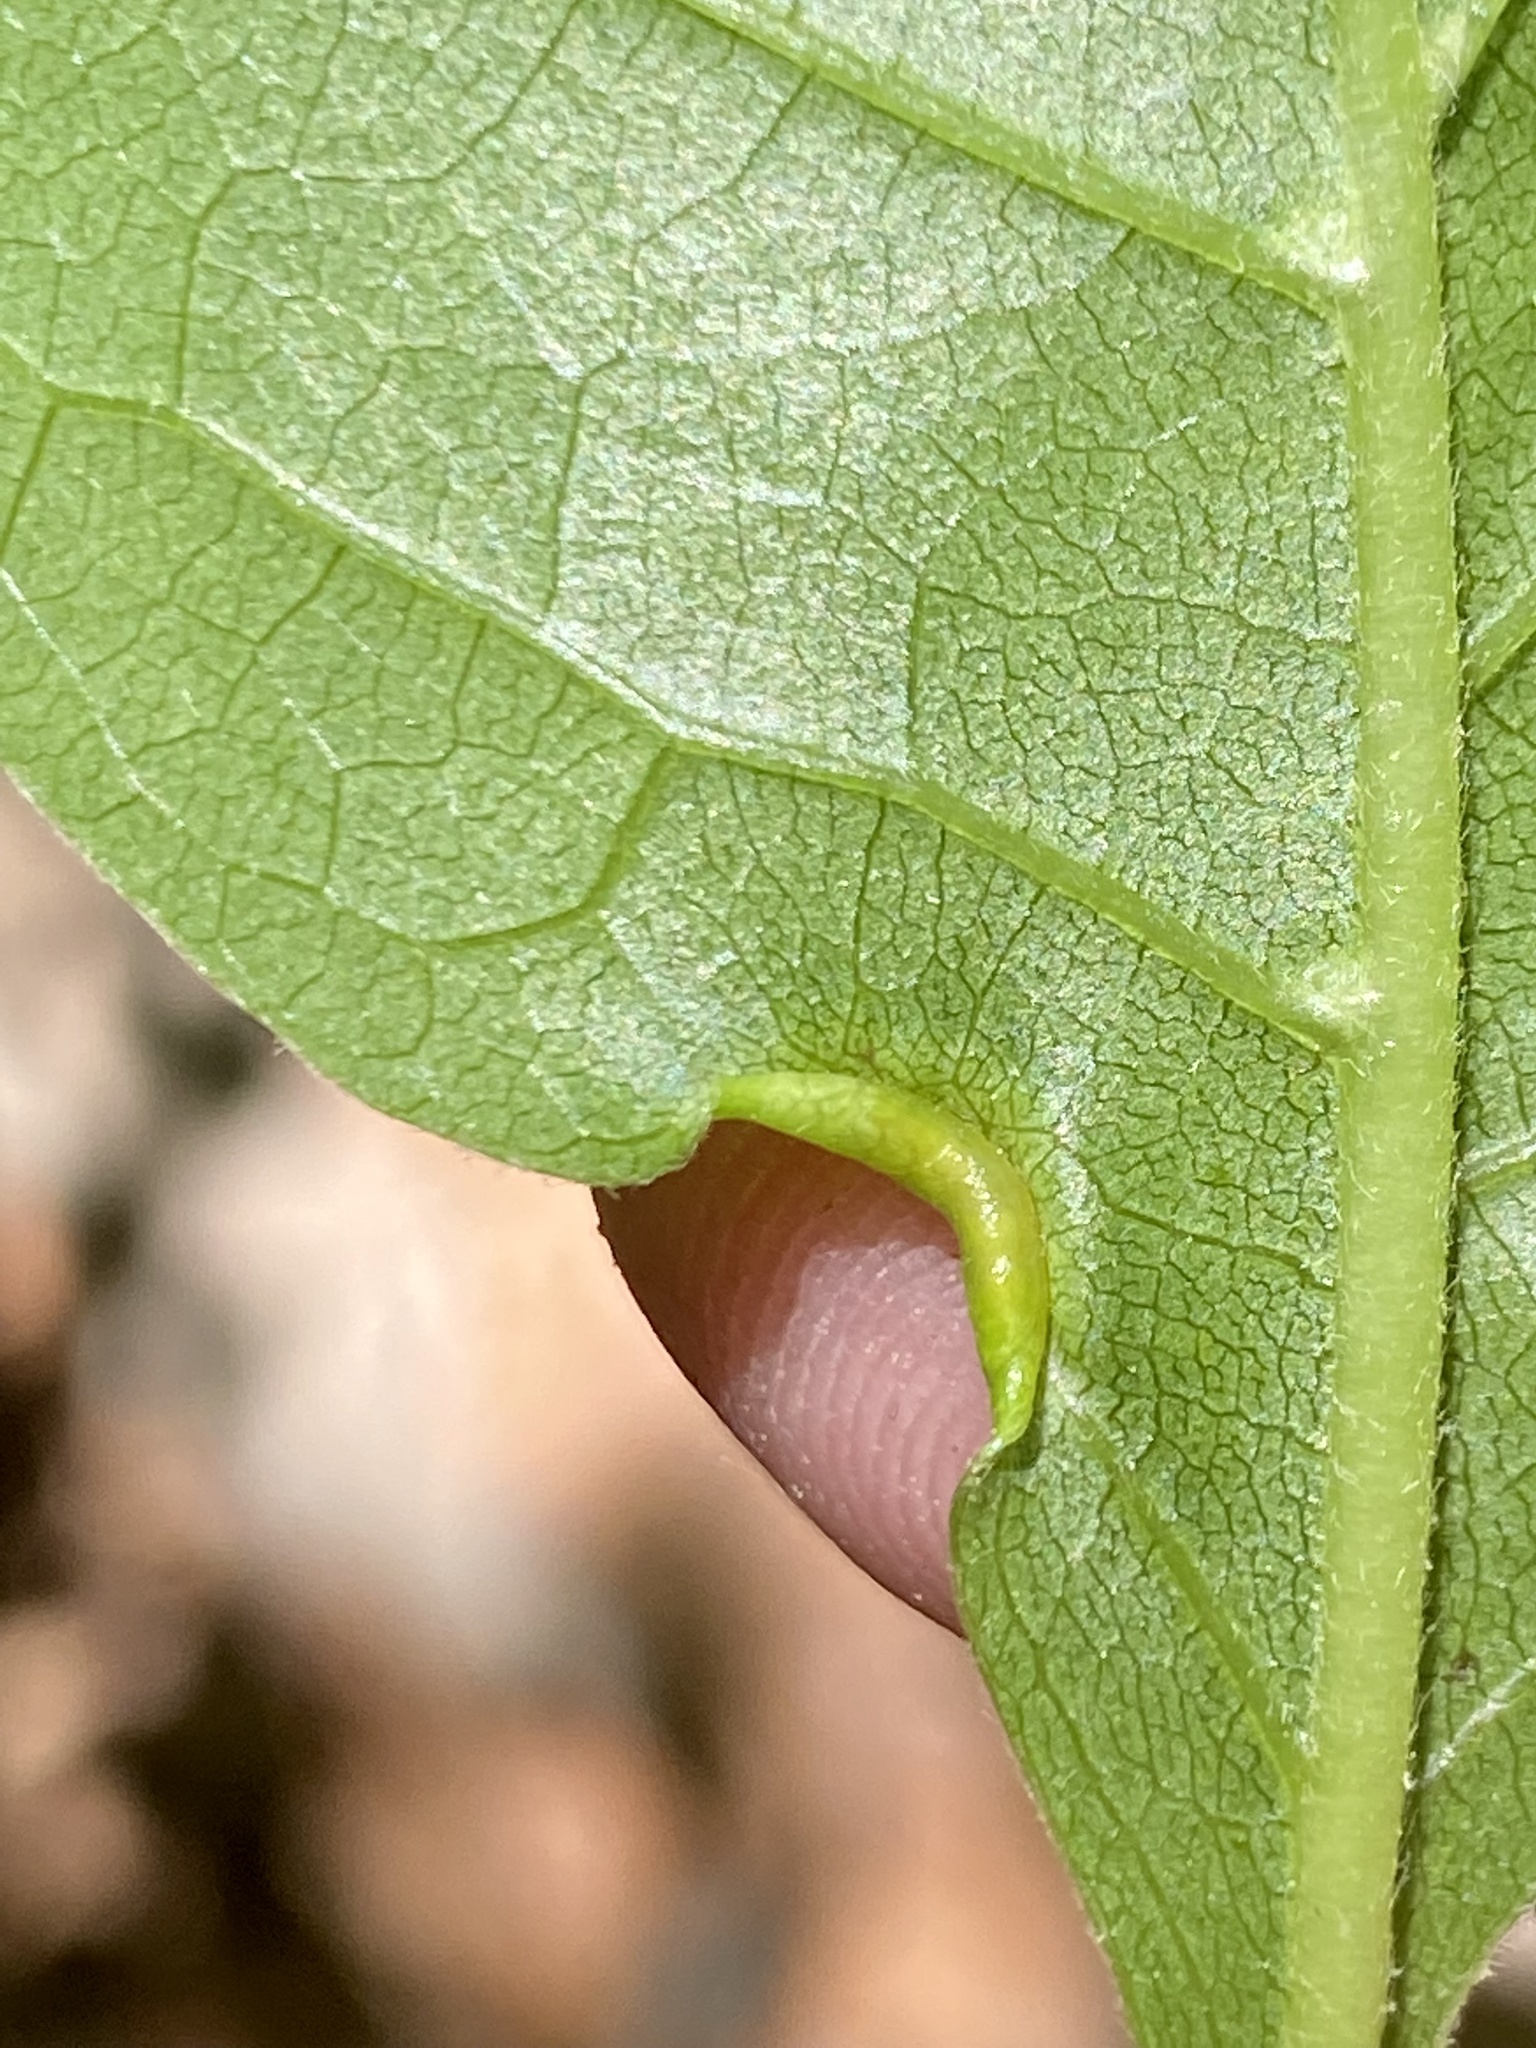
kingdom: Animalia
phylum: Arthropoda
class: Insecta
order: Hemiptera
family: Phylloxeridae
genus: Phylloxerina
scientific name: Phylloxerina nyssae
